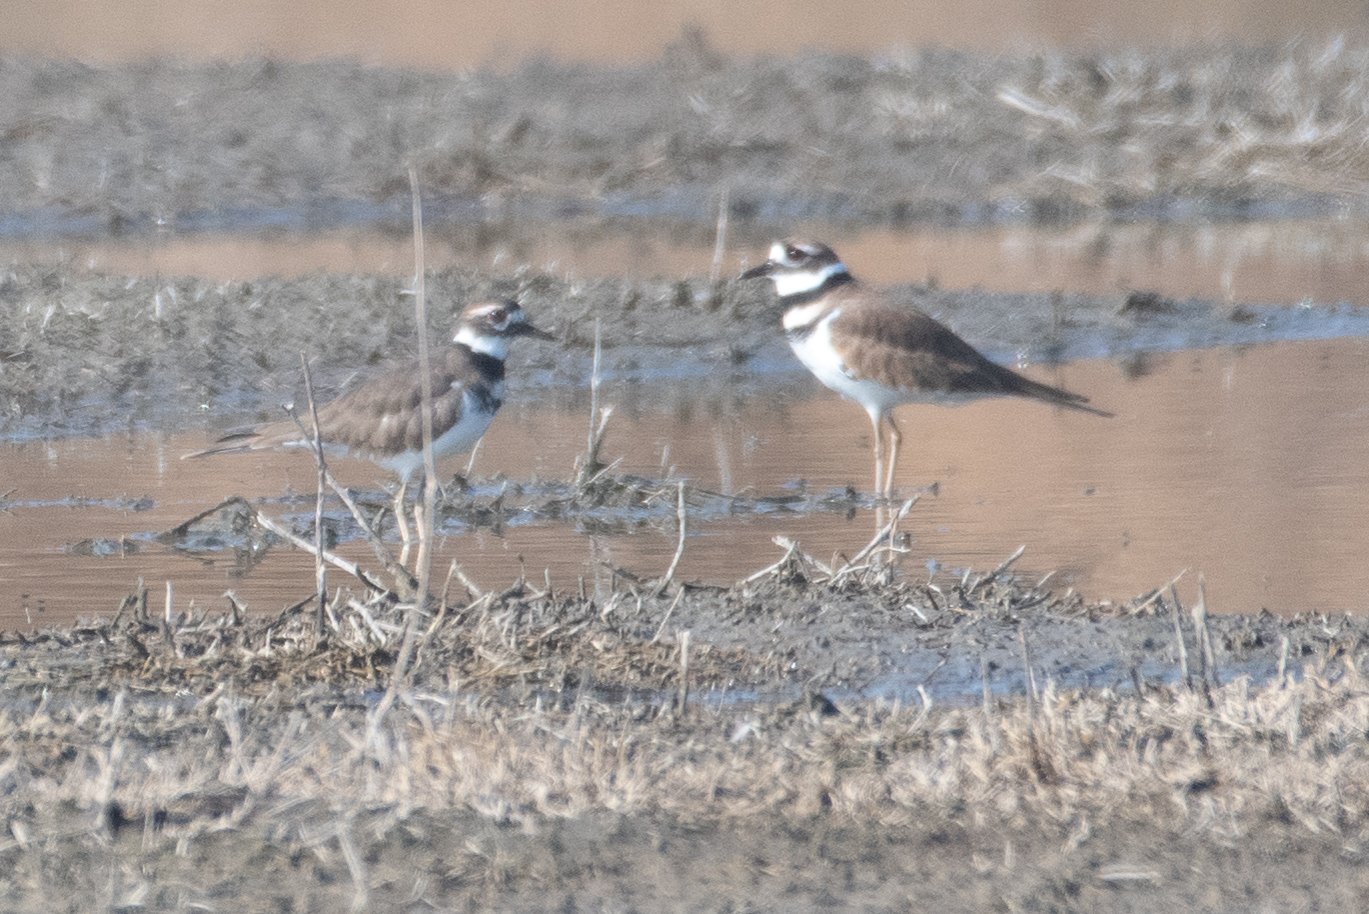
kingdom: Animalia
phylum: Chordata
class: Aves
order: Charadriiformes
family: Charadriidae
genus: Charadrius
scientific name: Charadrius vociferus
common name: Killdeer
